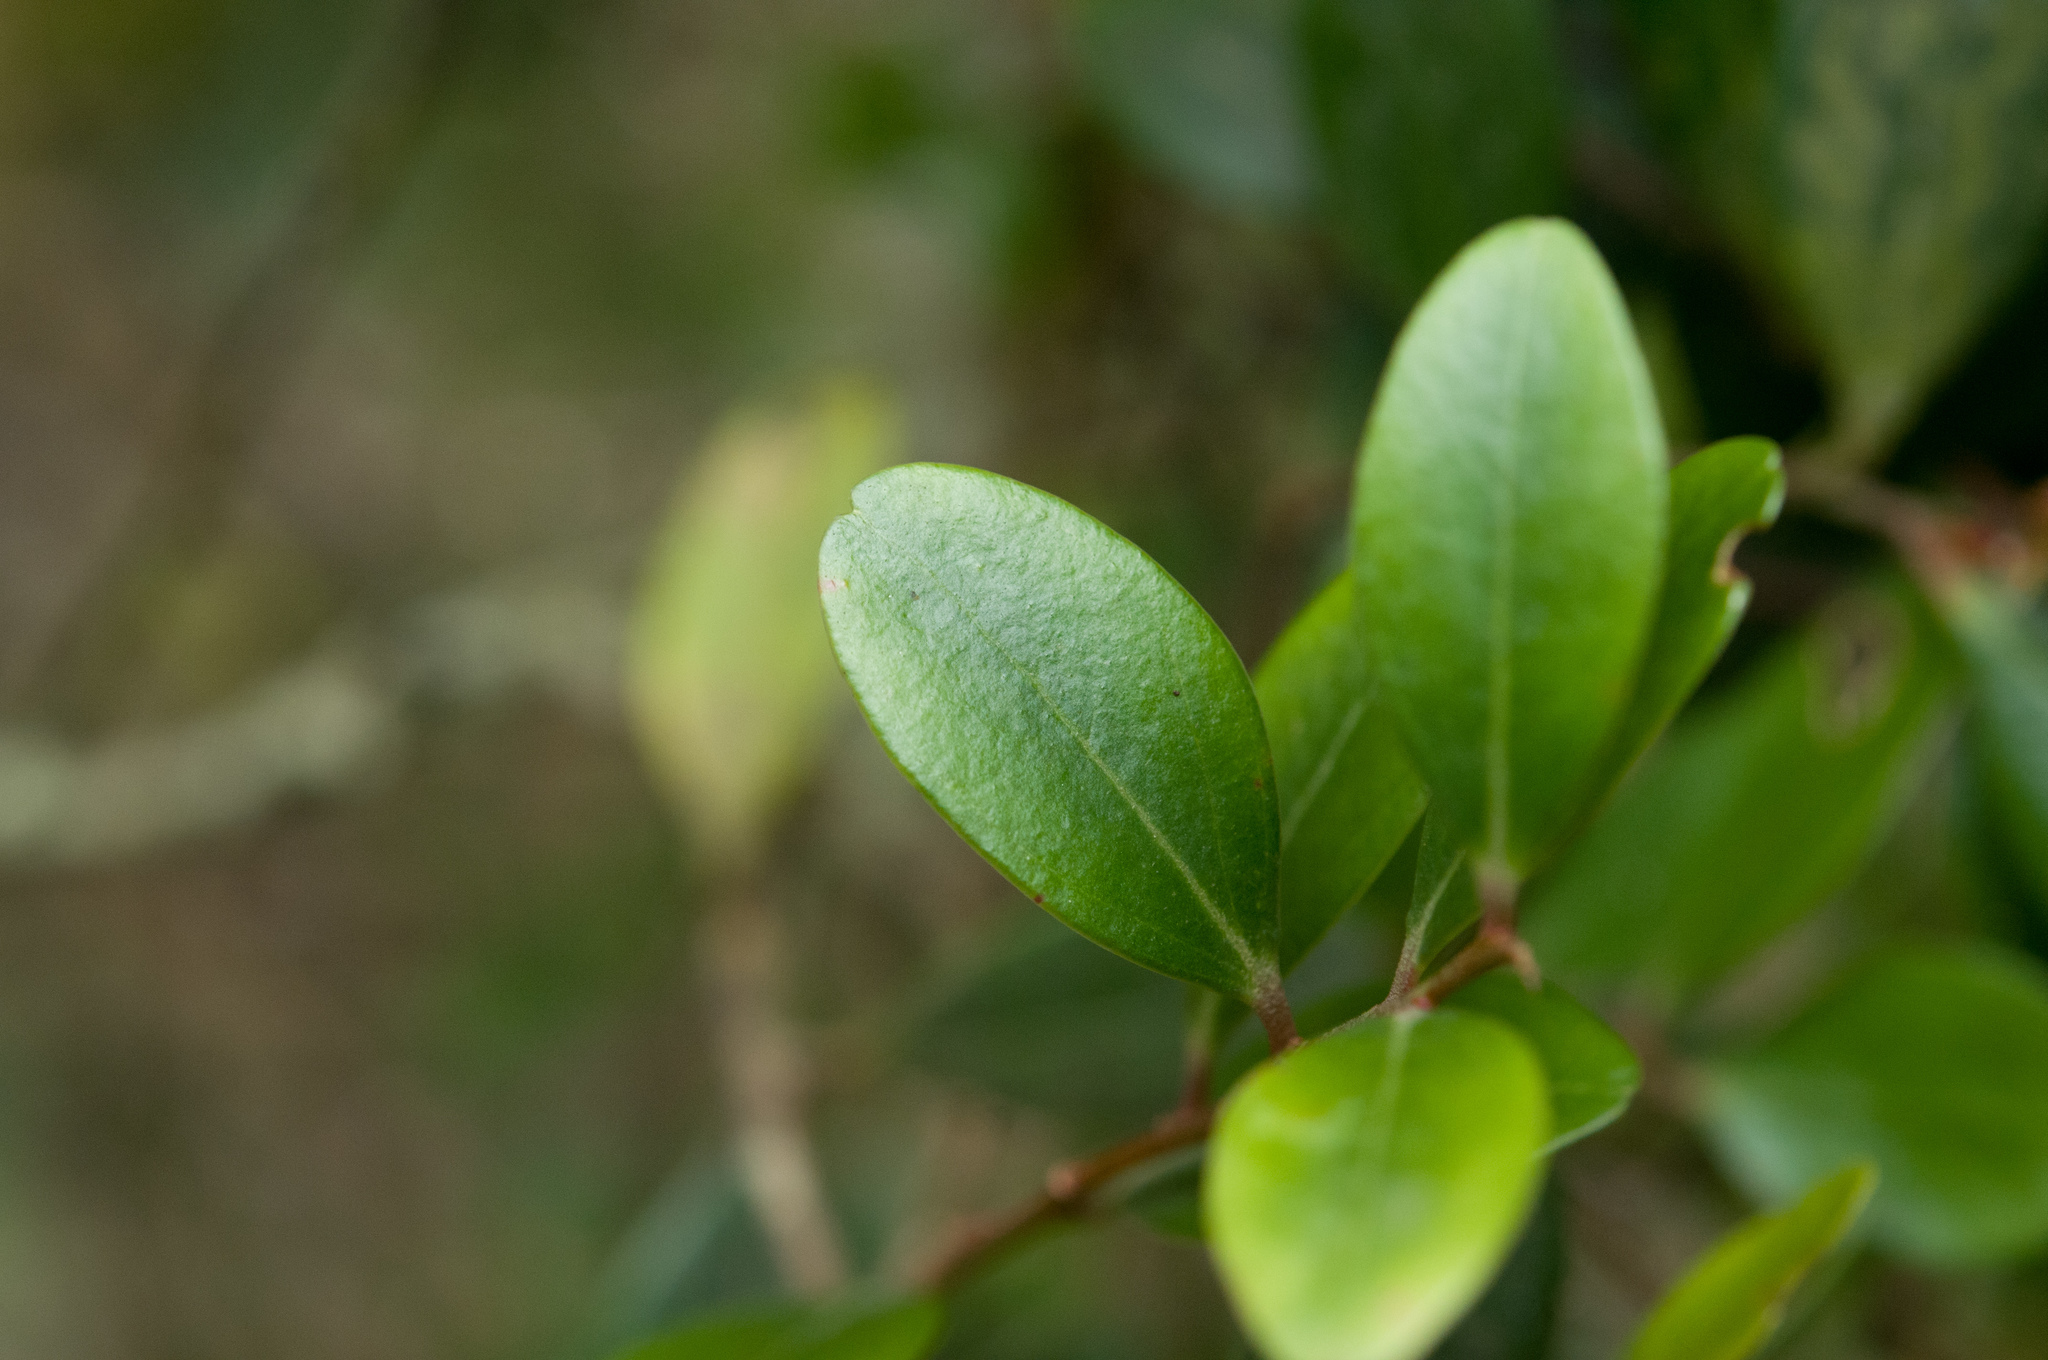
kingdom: Plantae
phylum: Tracheophyta
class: Magnoliopsida
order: Ericales
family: Ericaceae
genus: Vaccinium
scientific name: Vaccinium emarginatum
